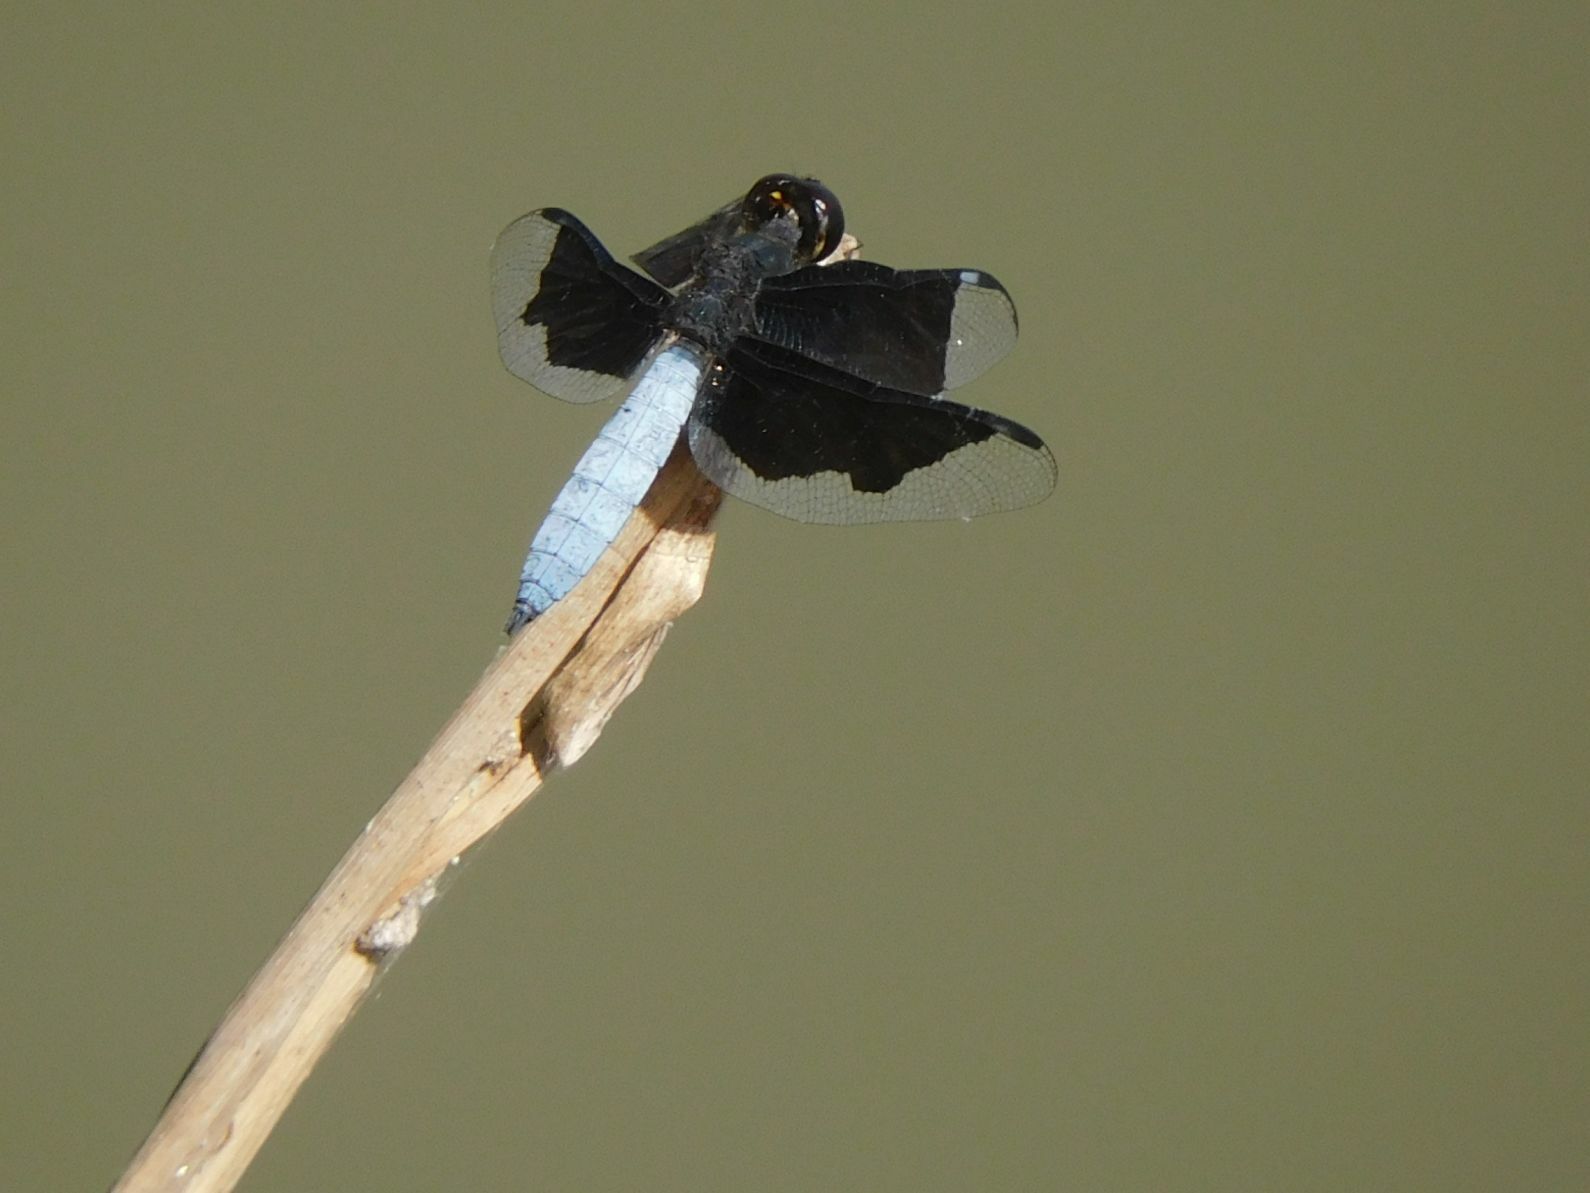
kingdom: Animalia
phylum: Arthropoda
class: Insecta
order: Odonata
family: Libellulidae
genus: Palpopleura
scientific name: Palpopleura lucia
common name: Lucia widow
